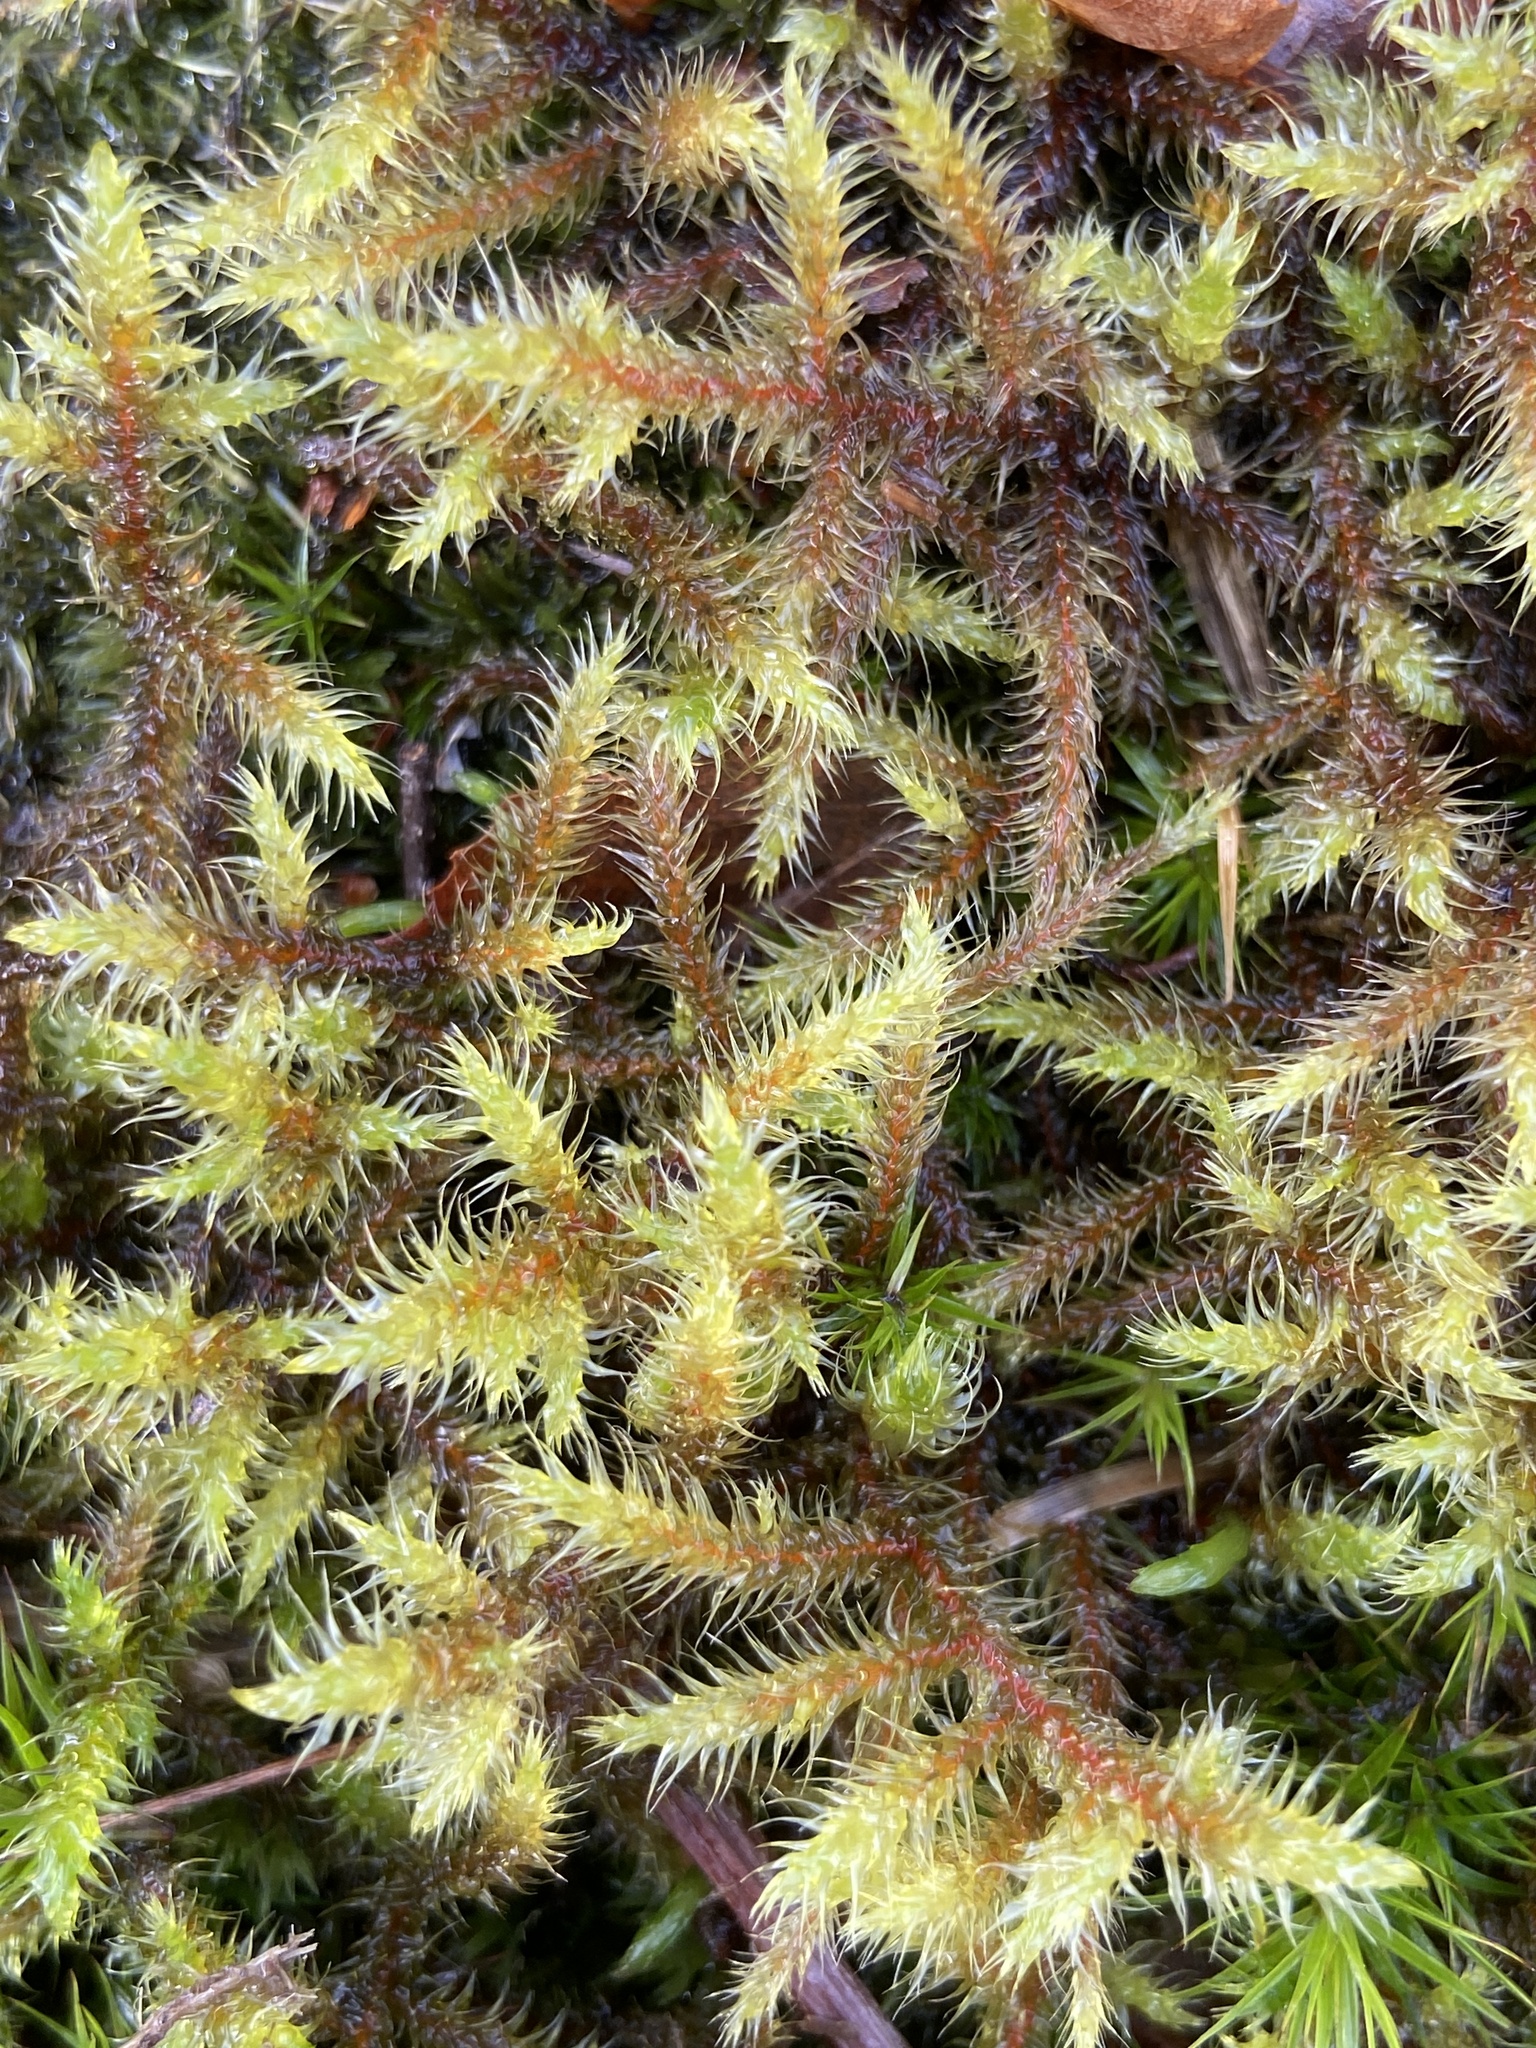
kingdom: Plantae
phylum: Bryophyta
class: Bryopsida
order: Hypnales
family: Hylocomiaceae
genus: Rhytidiadelphus
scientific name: Rhytidiadelphus loreus
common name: Lanky moss
